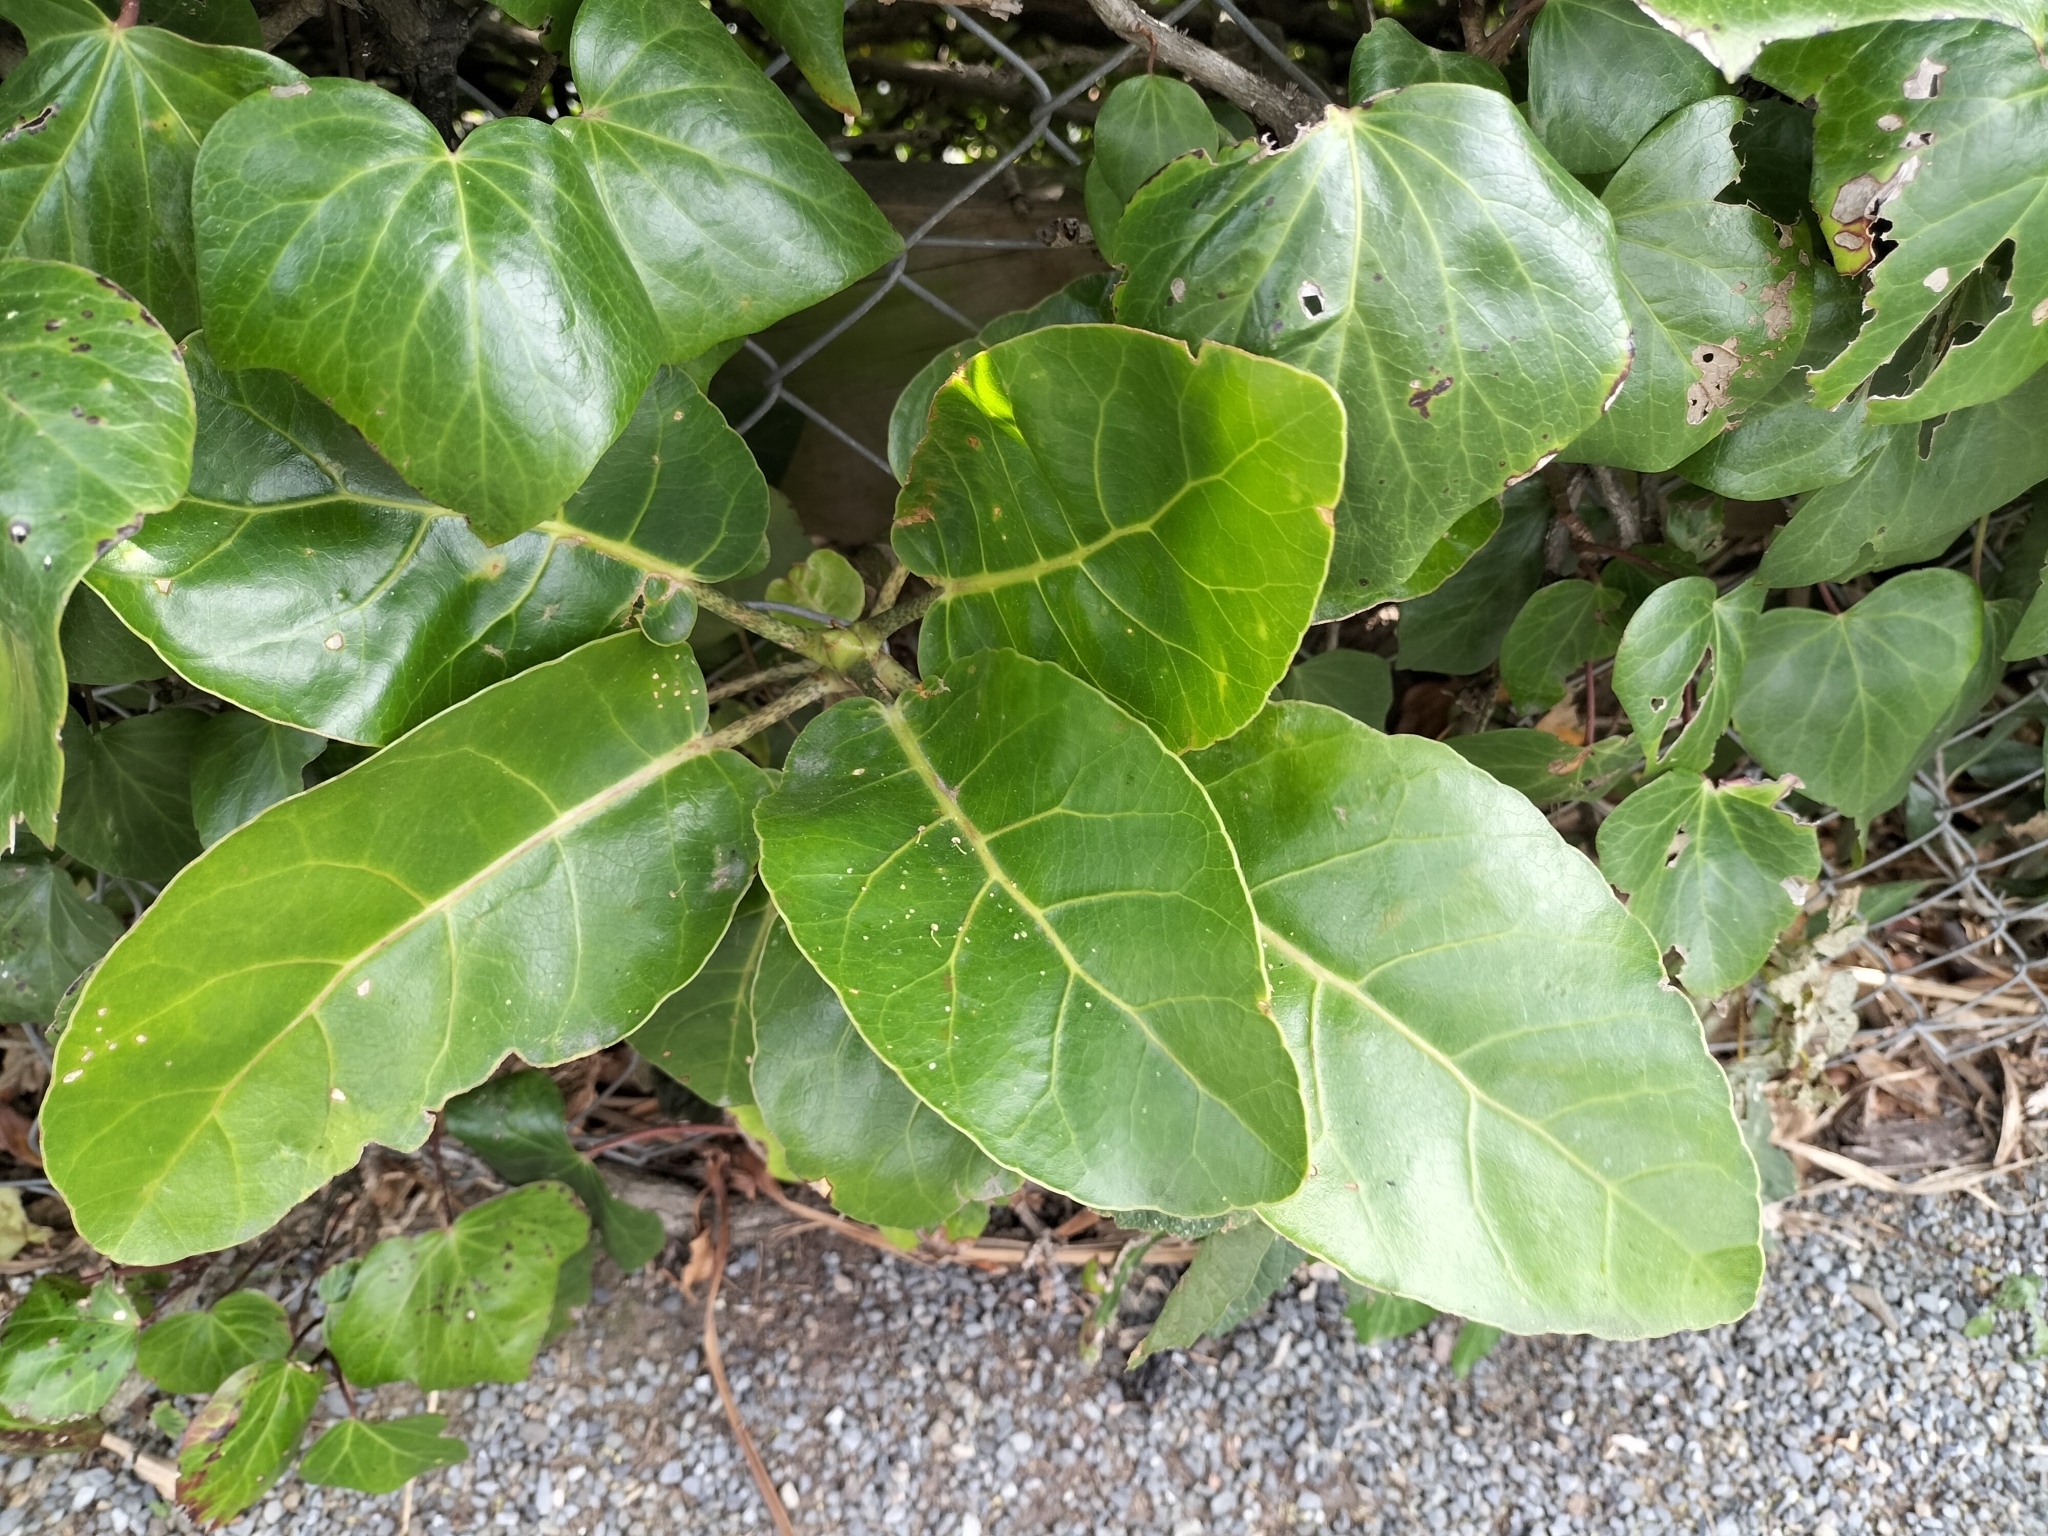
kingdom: Plantae
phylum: Tracheophyta
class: Magnoliopsida
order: Apiales
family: Araliaceae
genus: Meryta
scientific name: Meryta sinclairii
